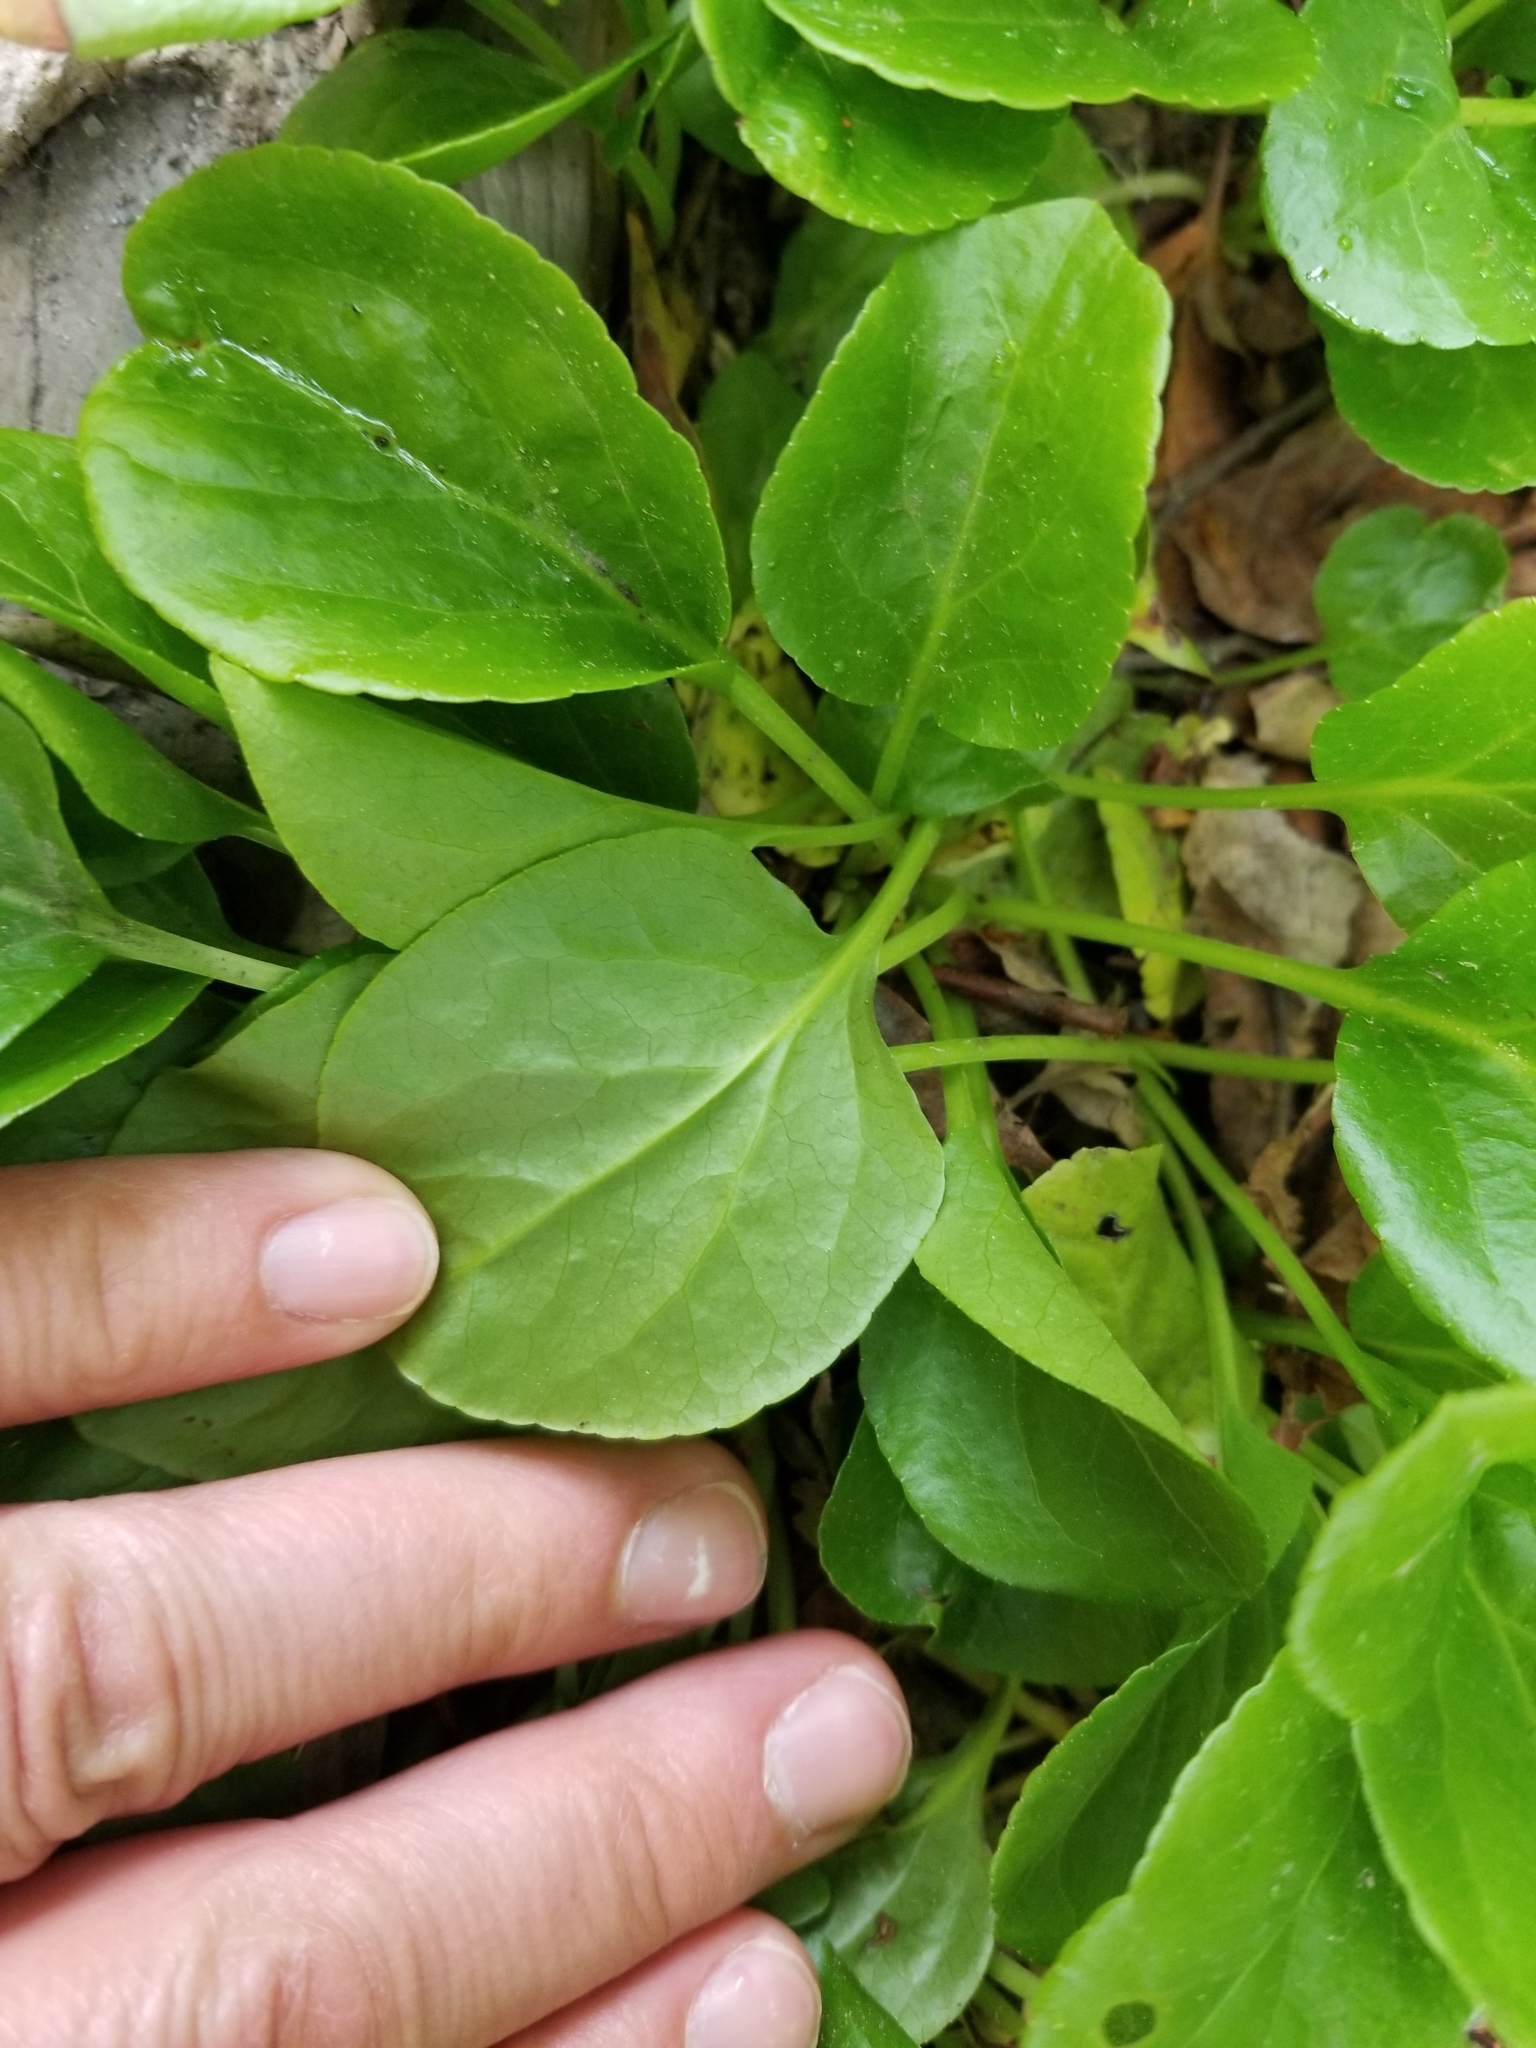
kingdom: Plantae
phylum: Tracheophyta
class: Magnoliopsida
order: Ericales
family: Ericaceae
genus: Pyrola
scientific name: Pyrola asarifolia
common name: Bog wintergreen
